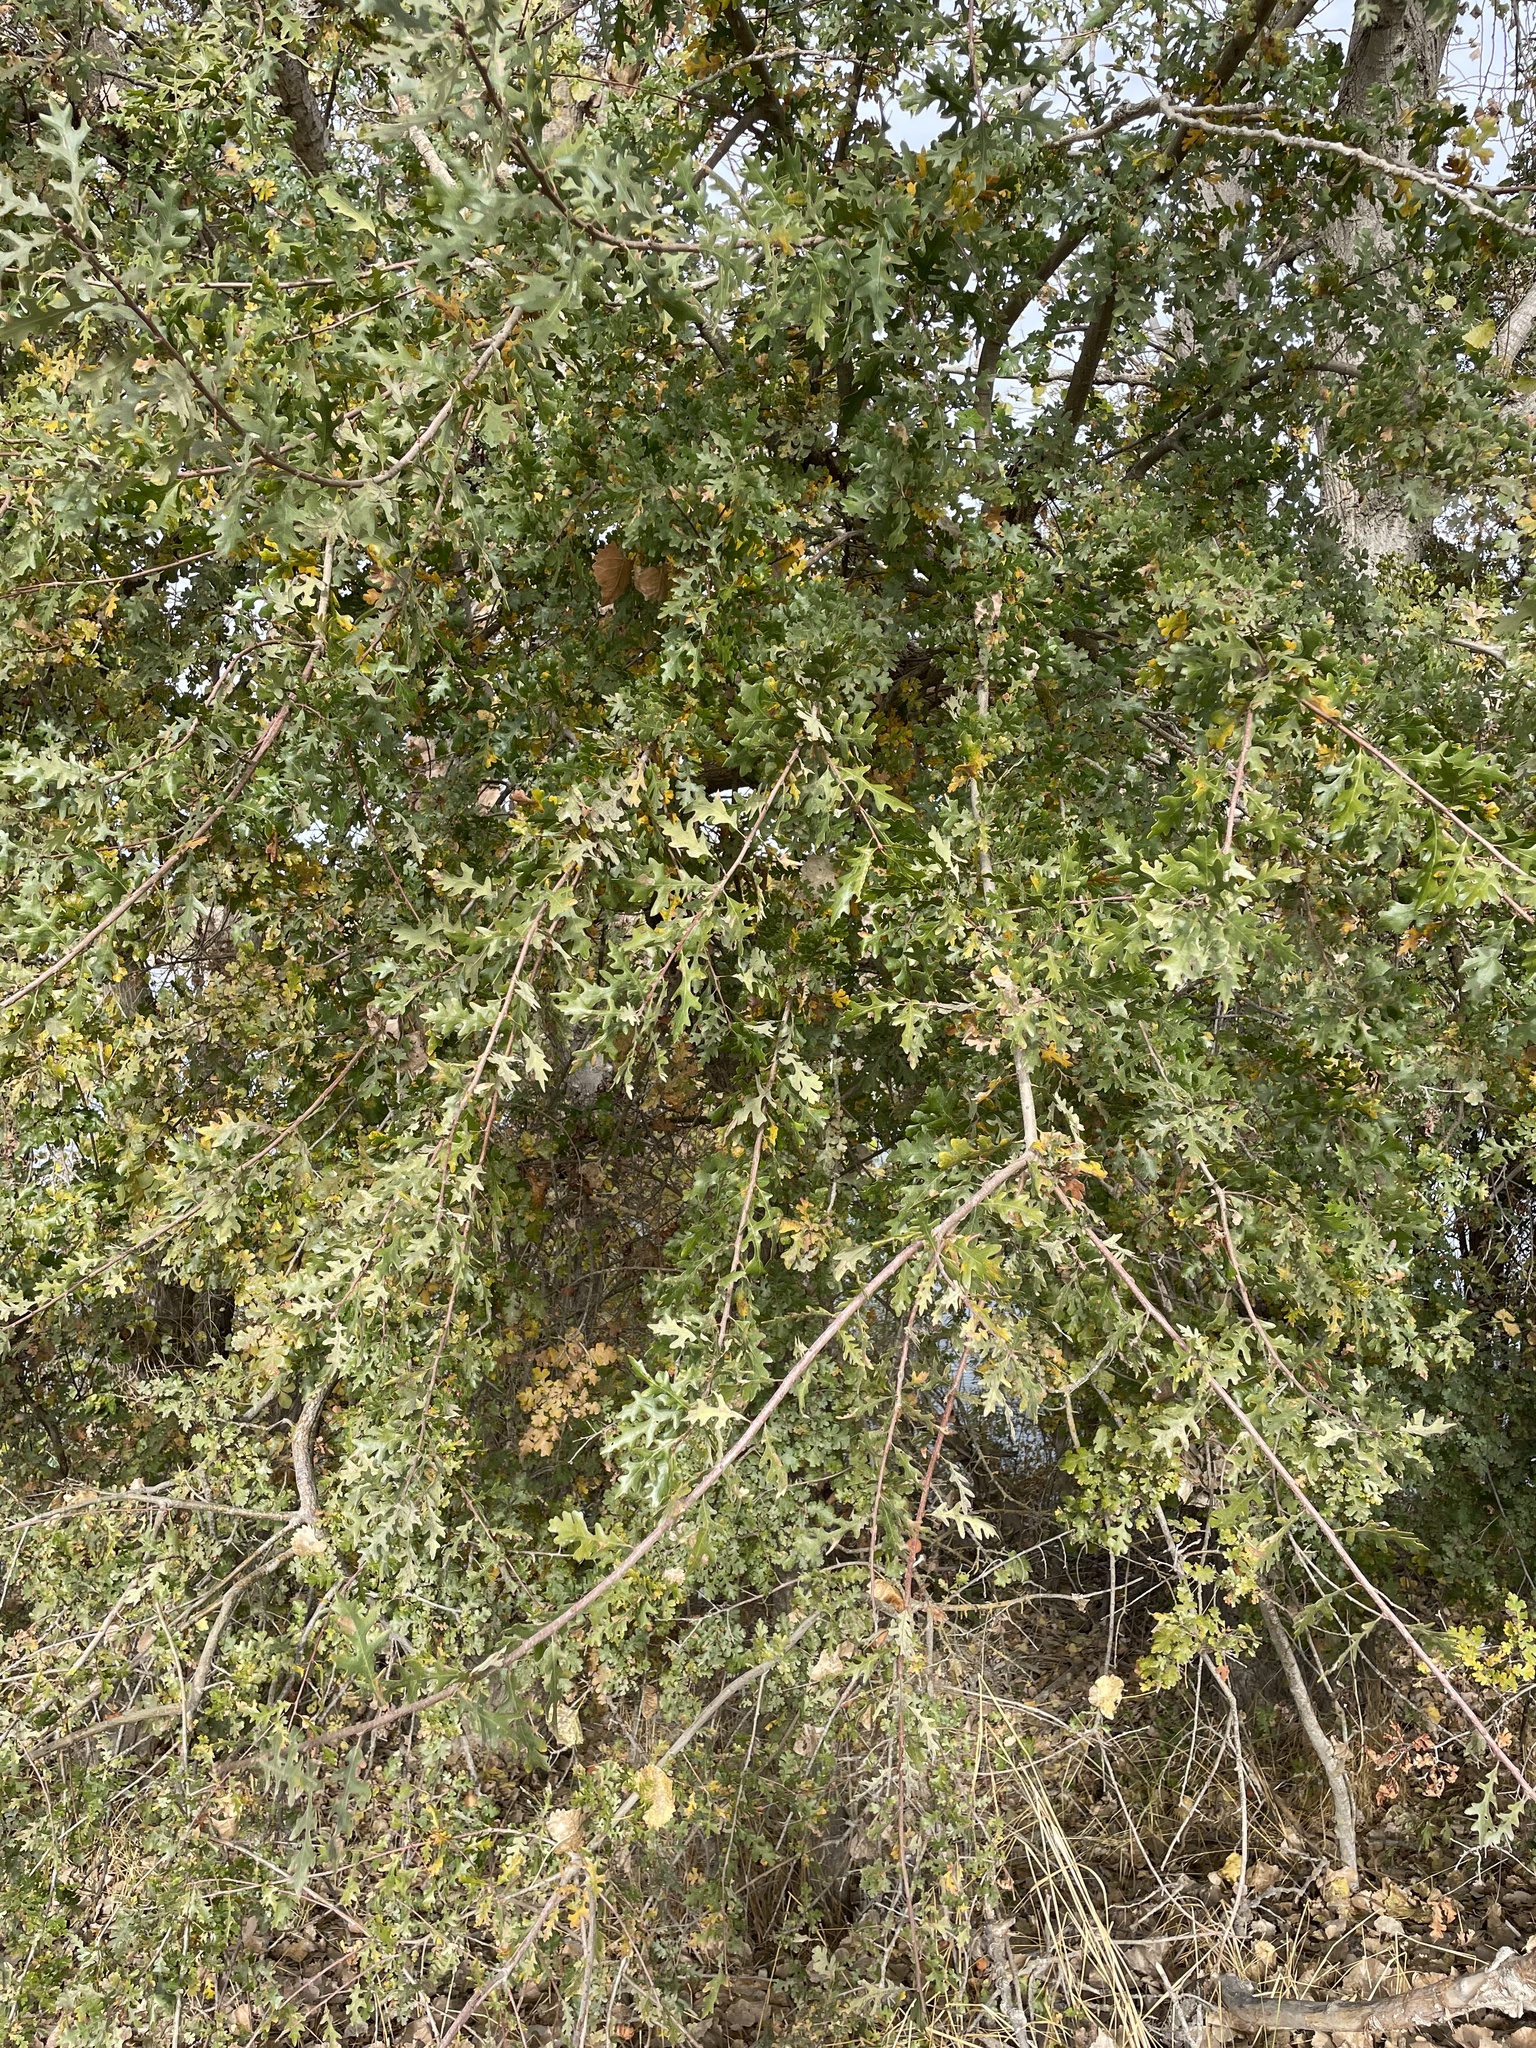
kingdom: Plantae
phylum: Tracheophyta
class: Magnoliopsida
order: Fagales
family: Fagaceae
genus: Quercus
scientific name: Quercus lobata
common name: Valley oak
